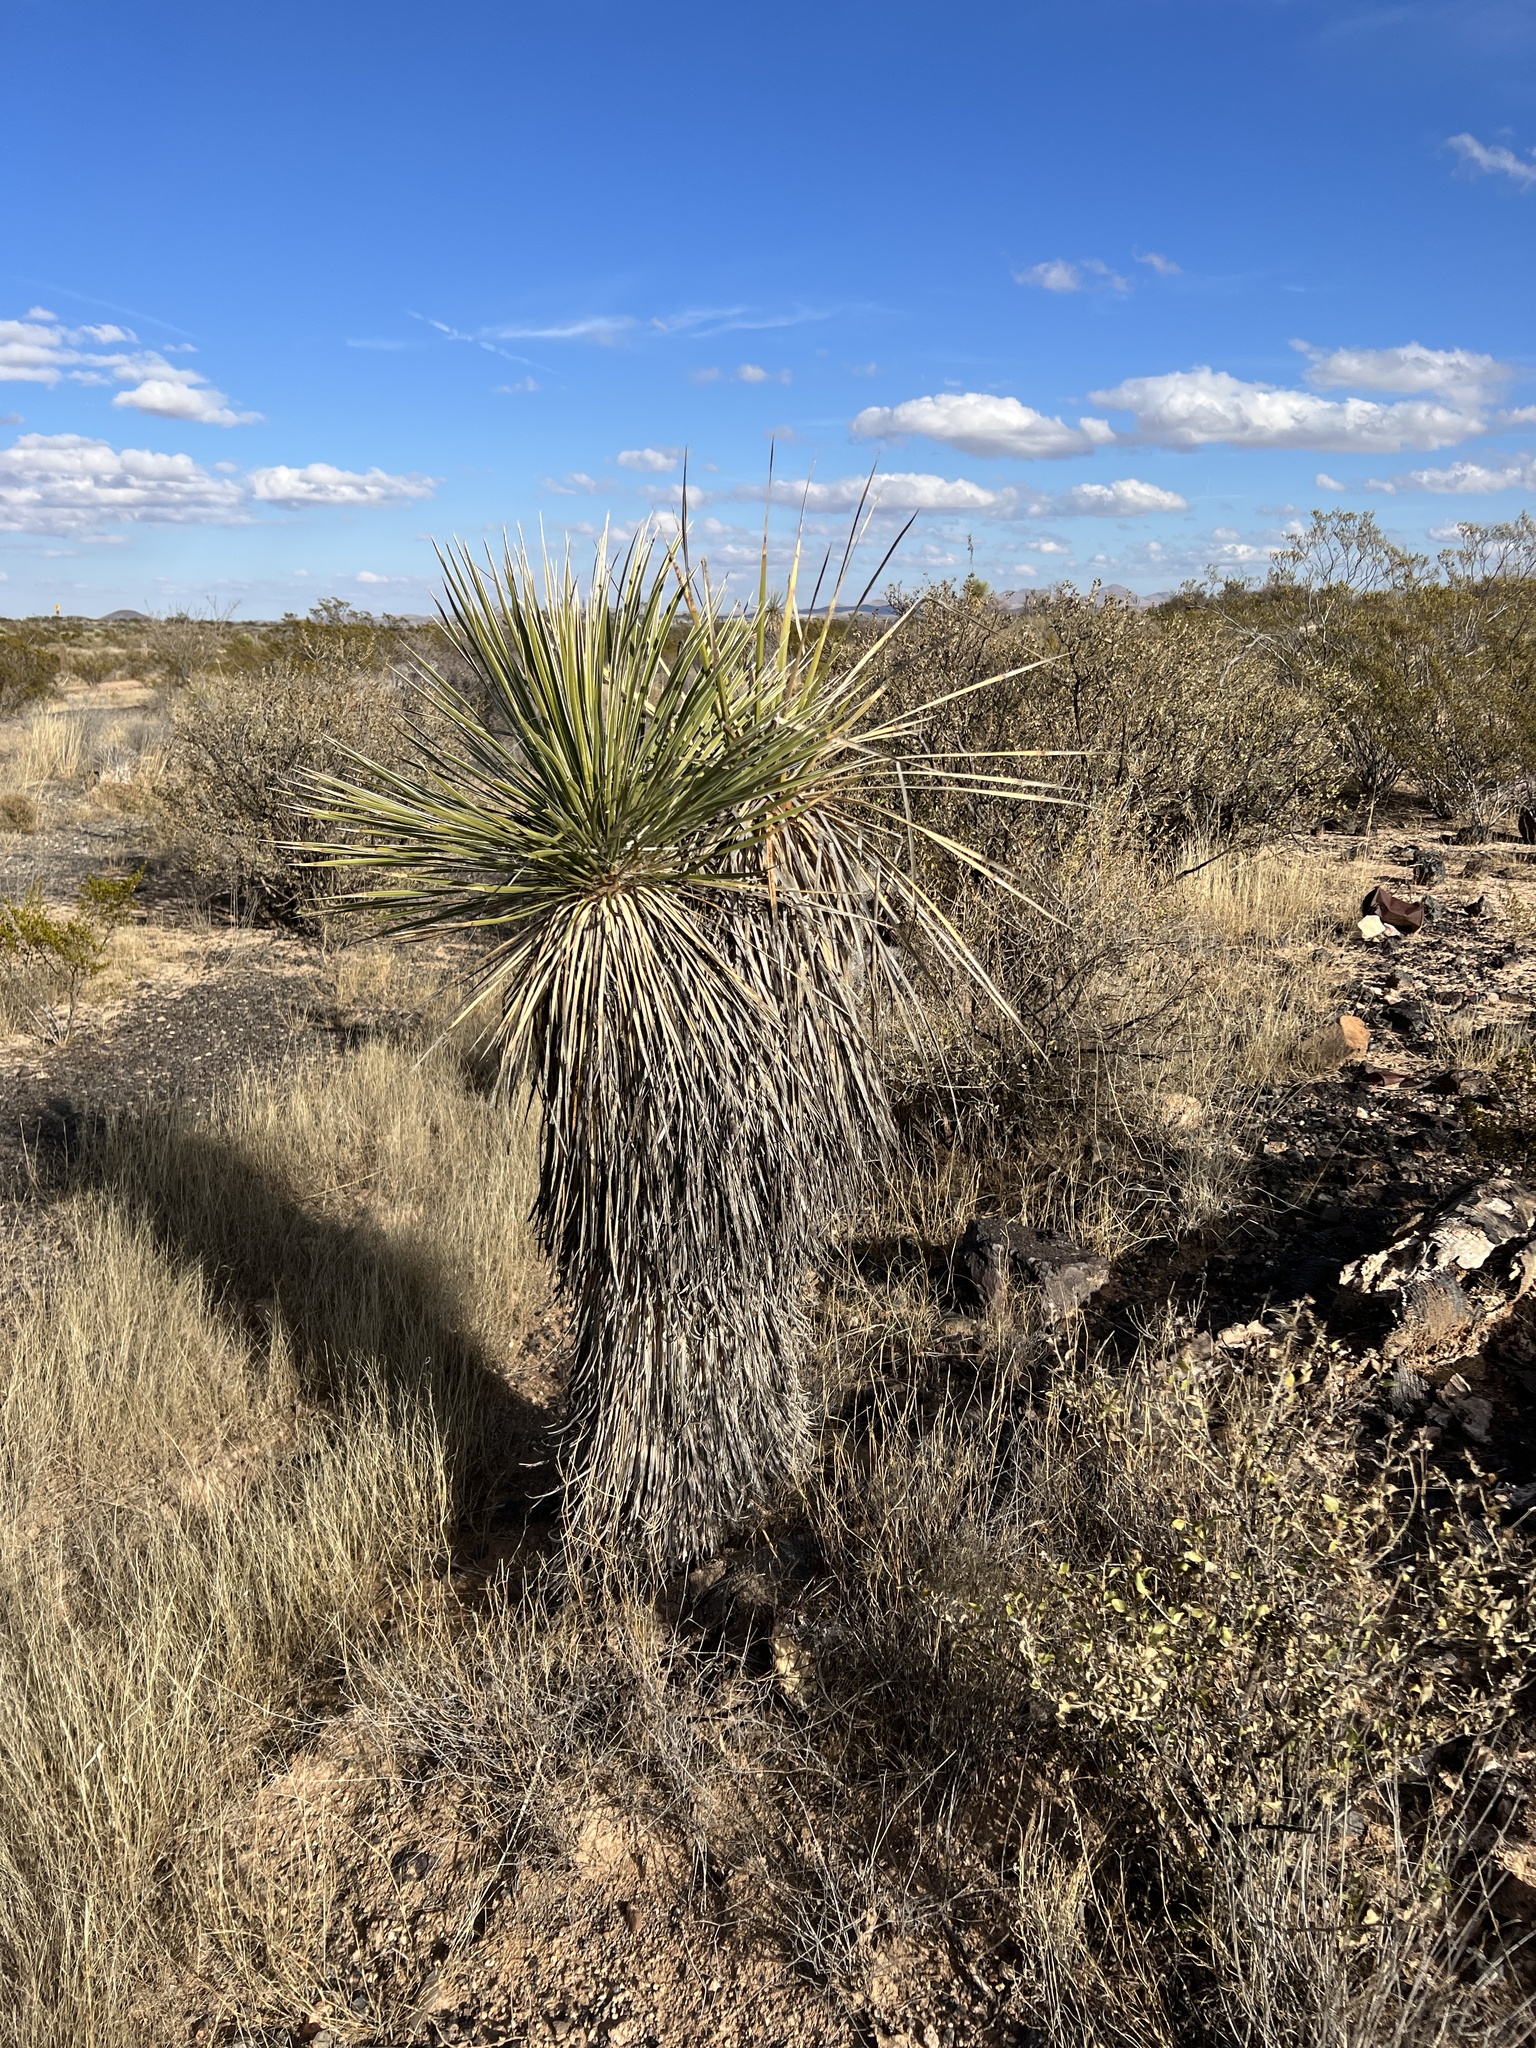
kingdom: Plantae
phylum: Tracheophyta
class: Liliopsida
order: Asparagales
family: Asparagaceae
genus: Yucca
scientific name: Yucca elata
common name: Palmella
